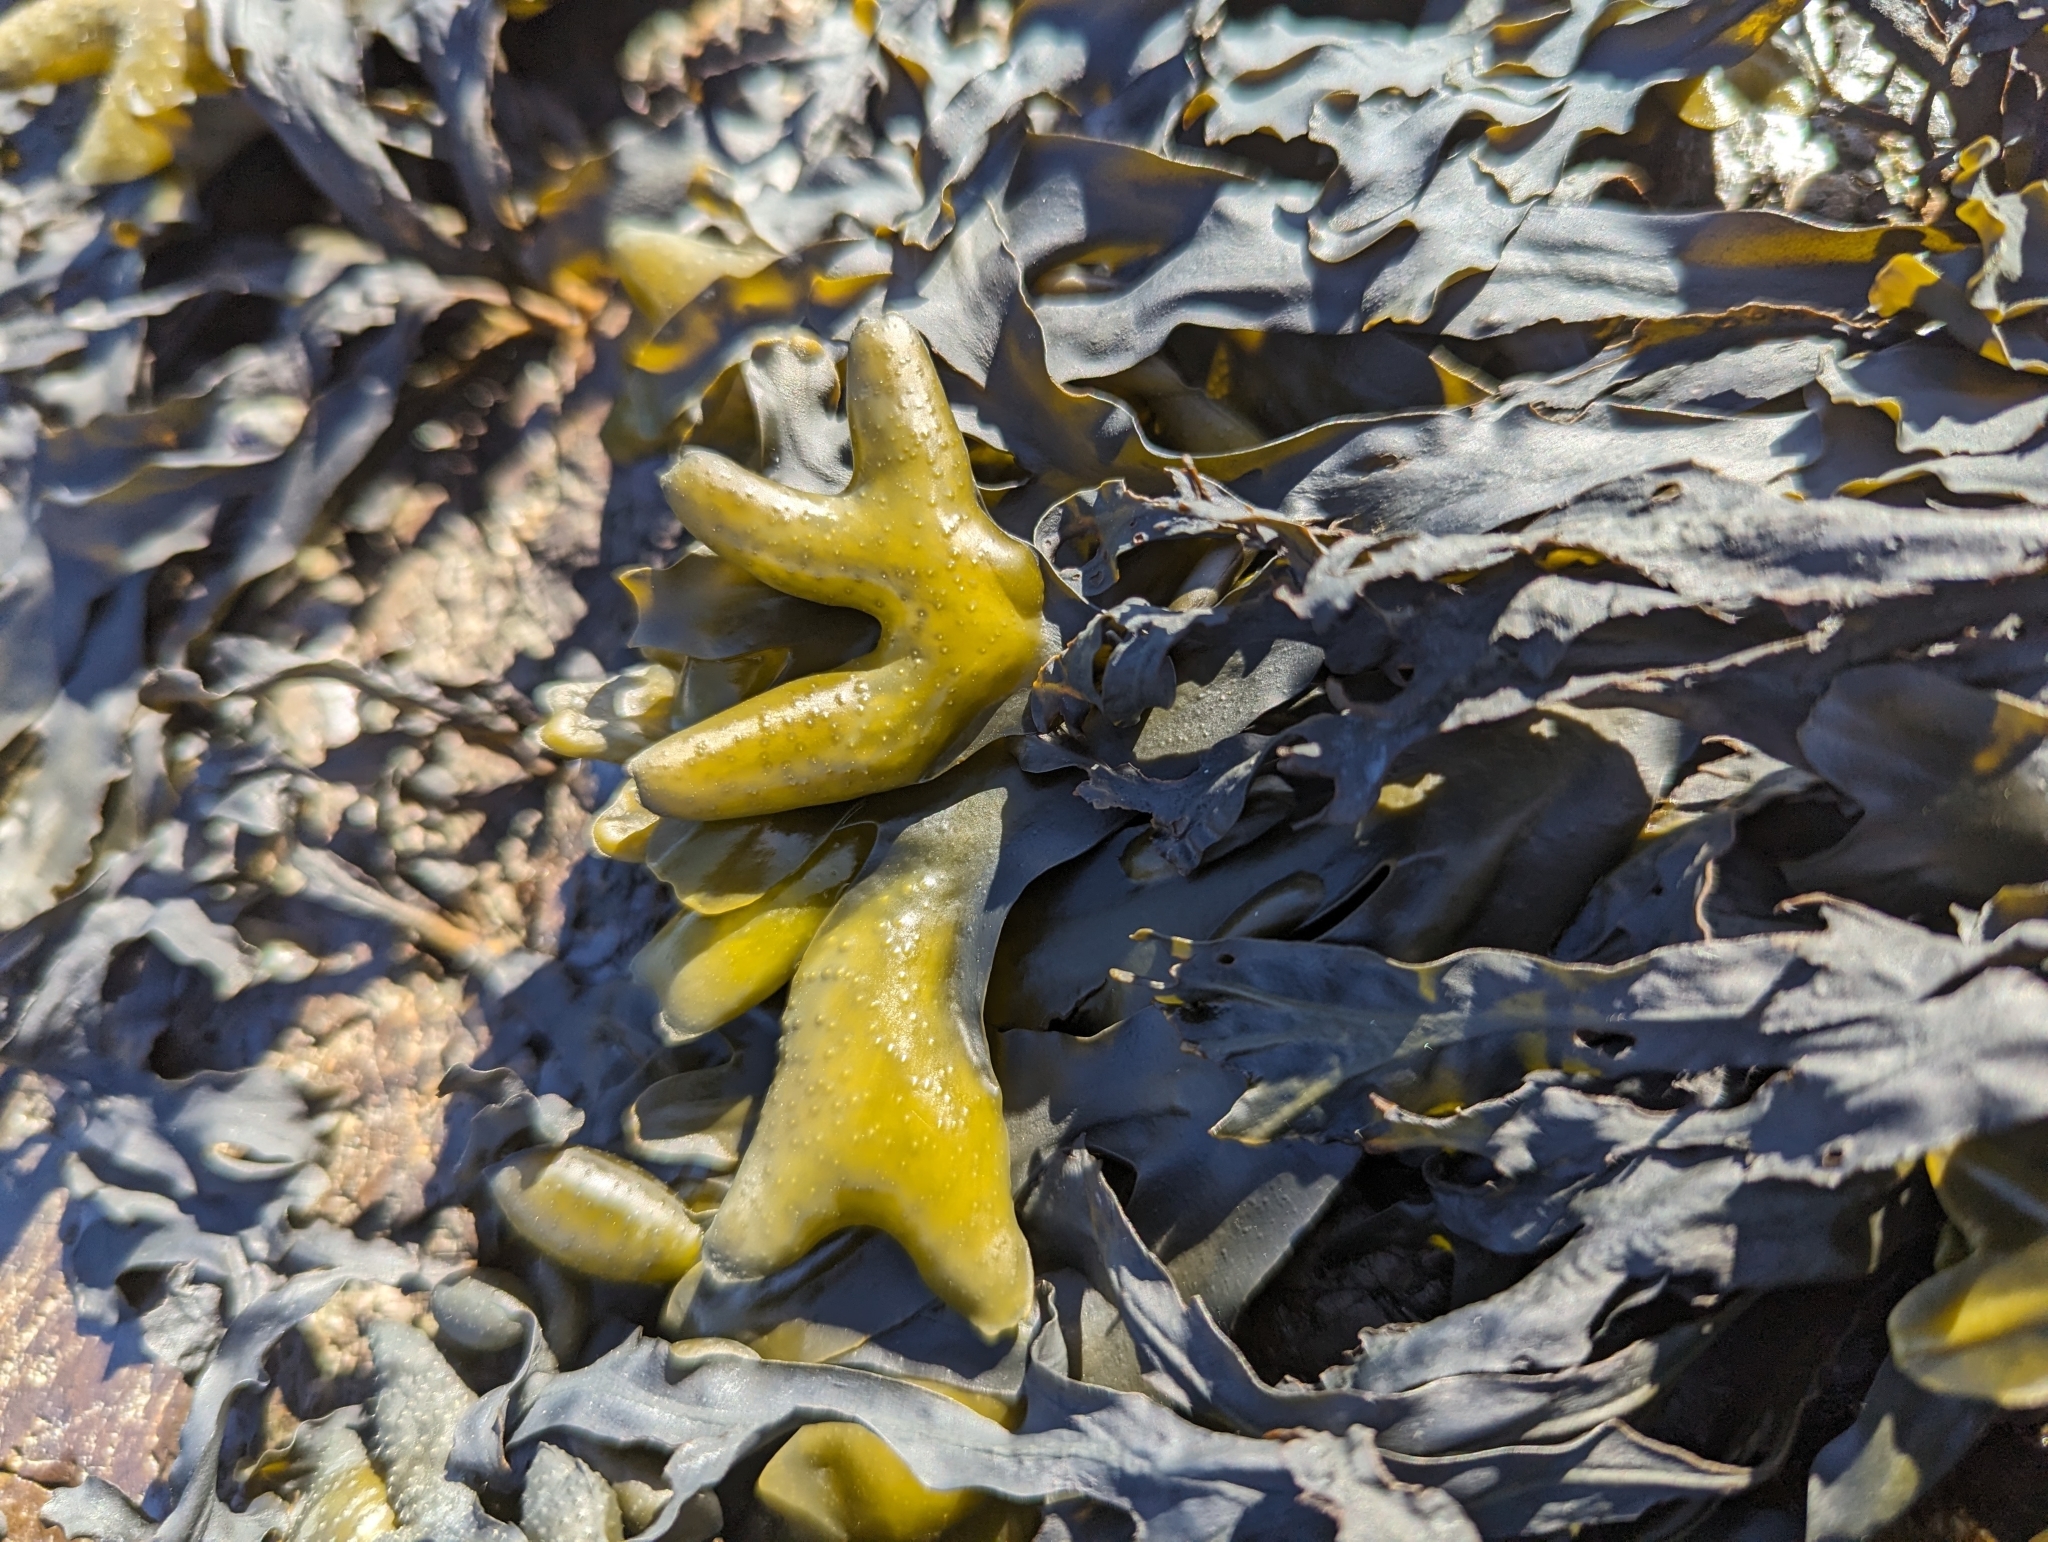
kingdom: Chromista
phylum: Ochrophyta
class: Phaeophyceae
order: Fucales
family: Fucaceae
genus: Fucus
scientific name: Fucus distichus
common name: Rockweed
